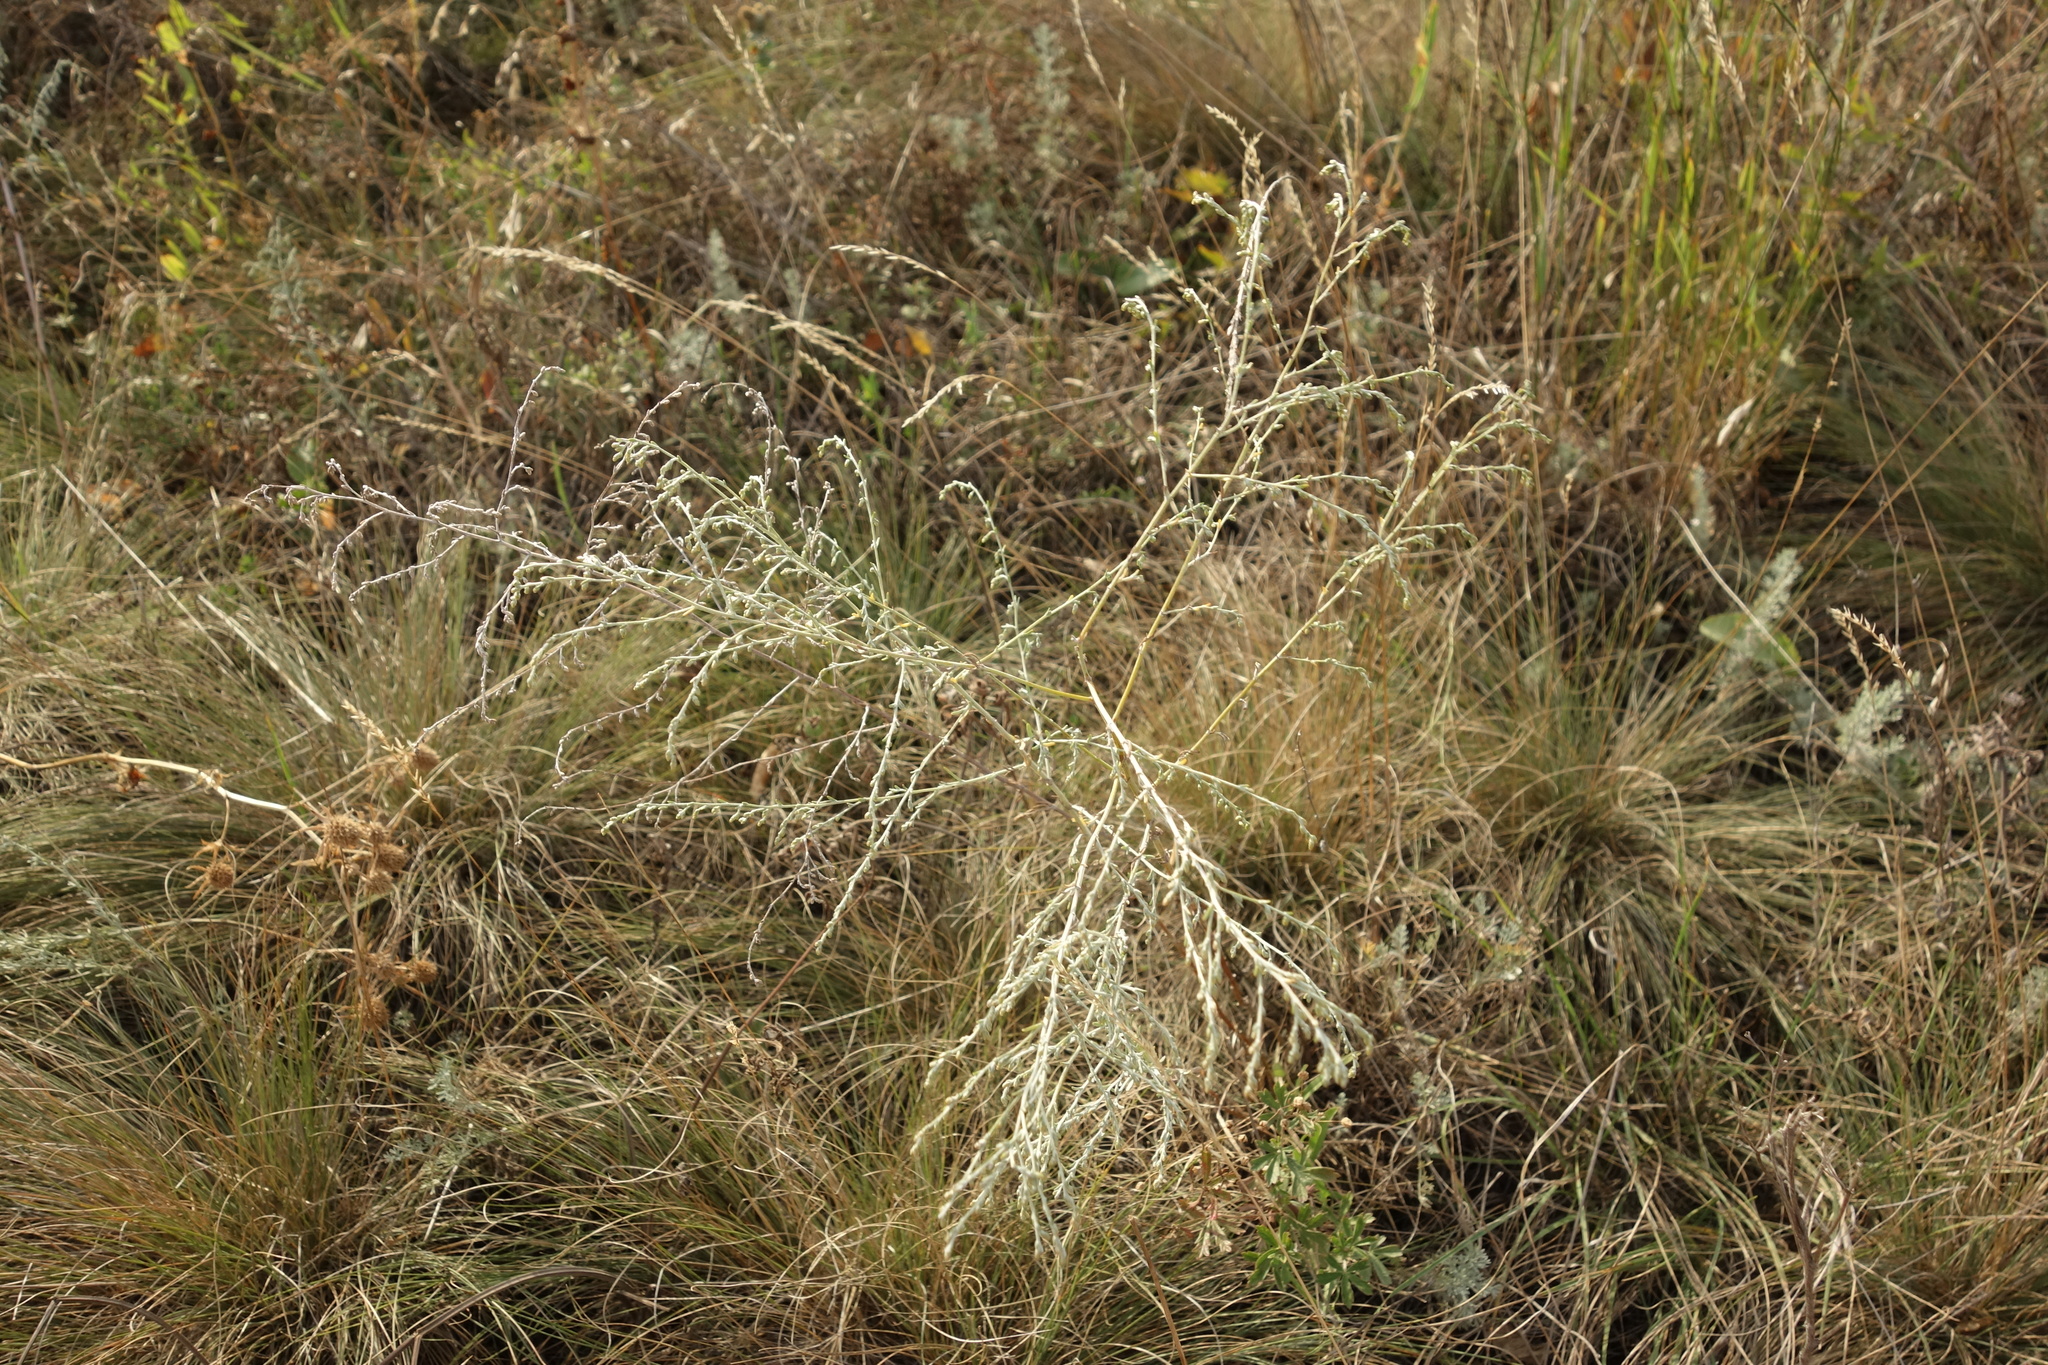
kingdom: Plantae
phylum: Tracheophyta
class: Magnoliopsida
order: Asterales
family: Asteraceae
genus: Artemisia
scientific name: Artemisia santonicum
